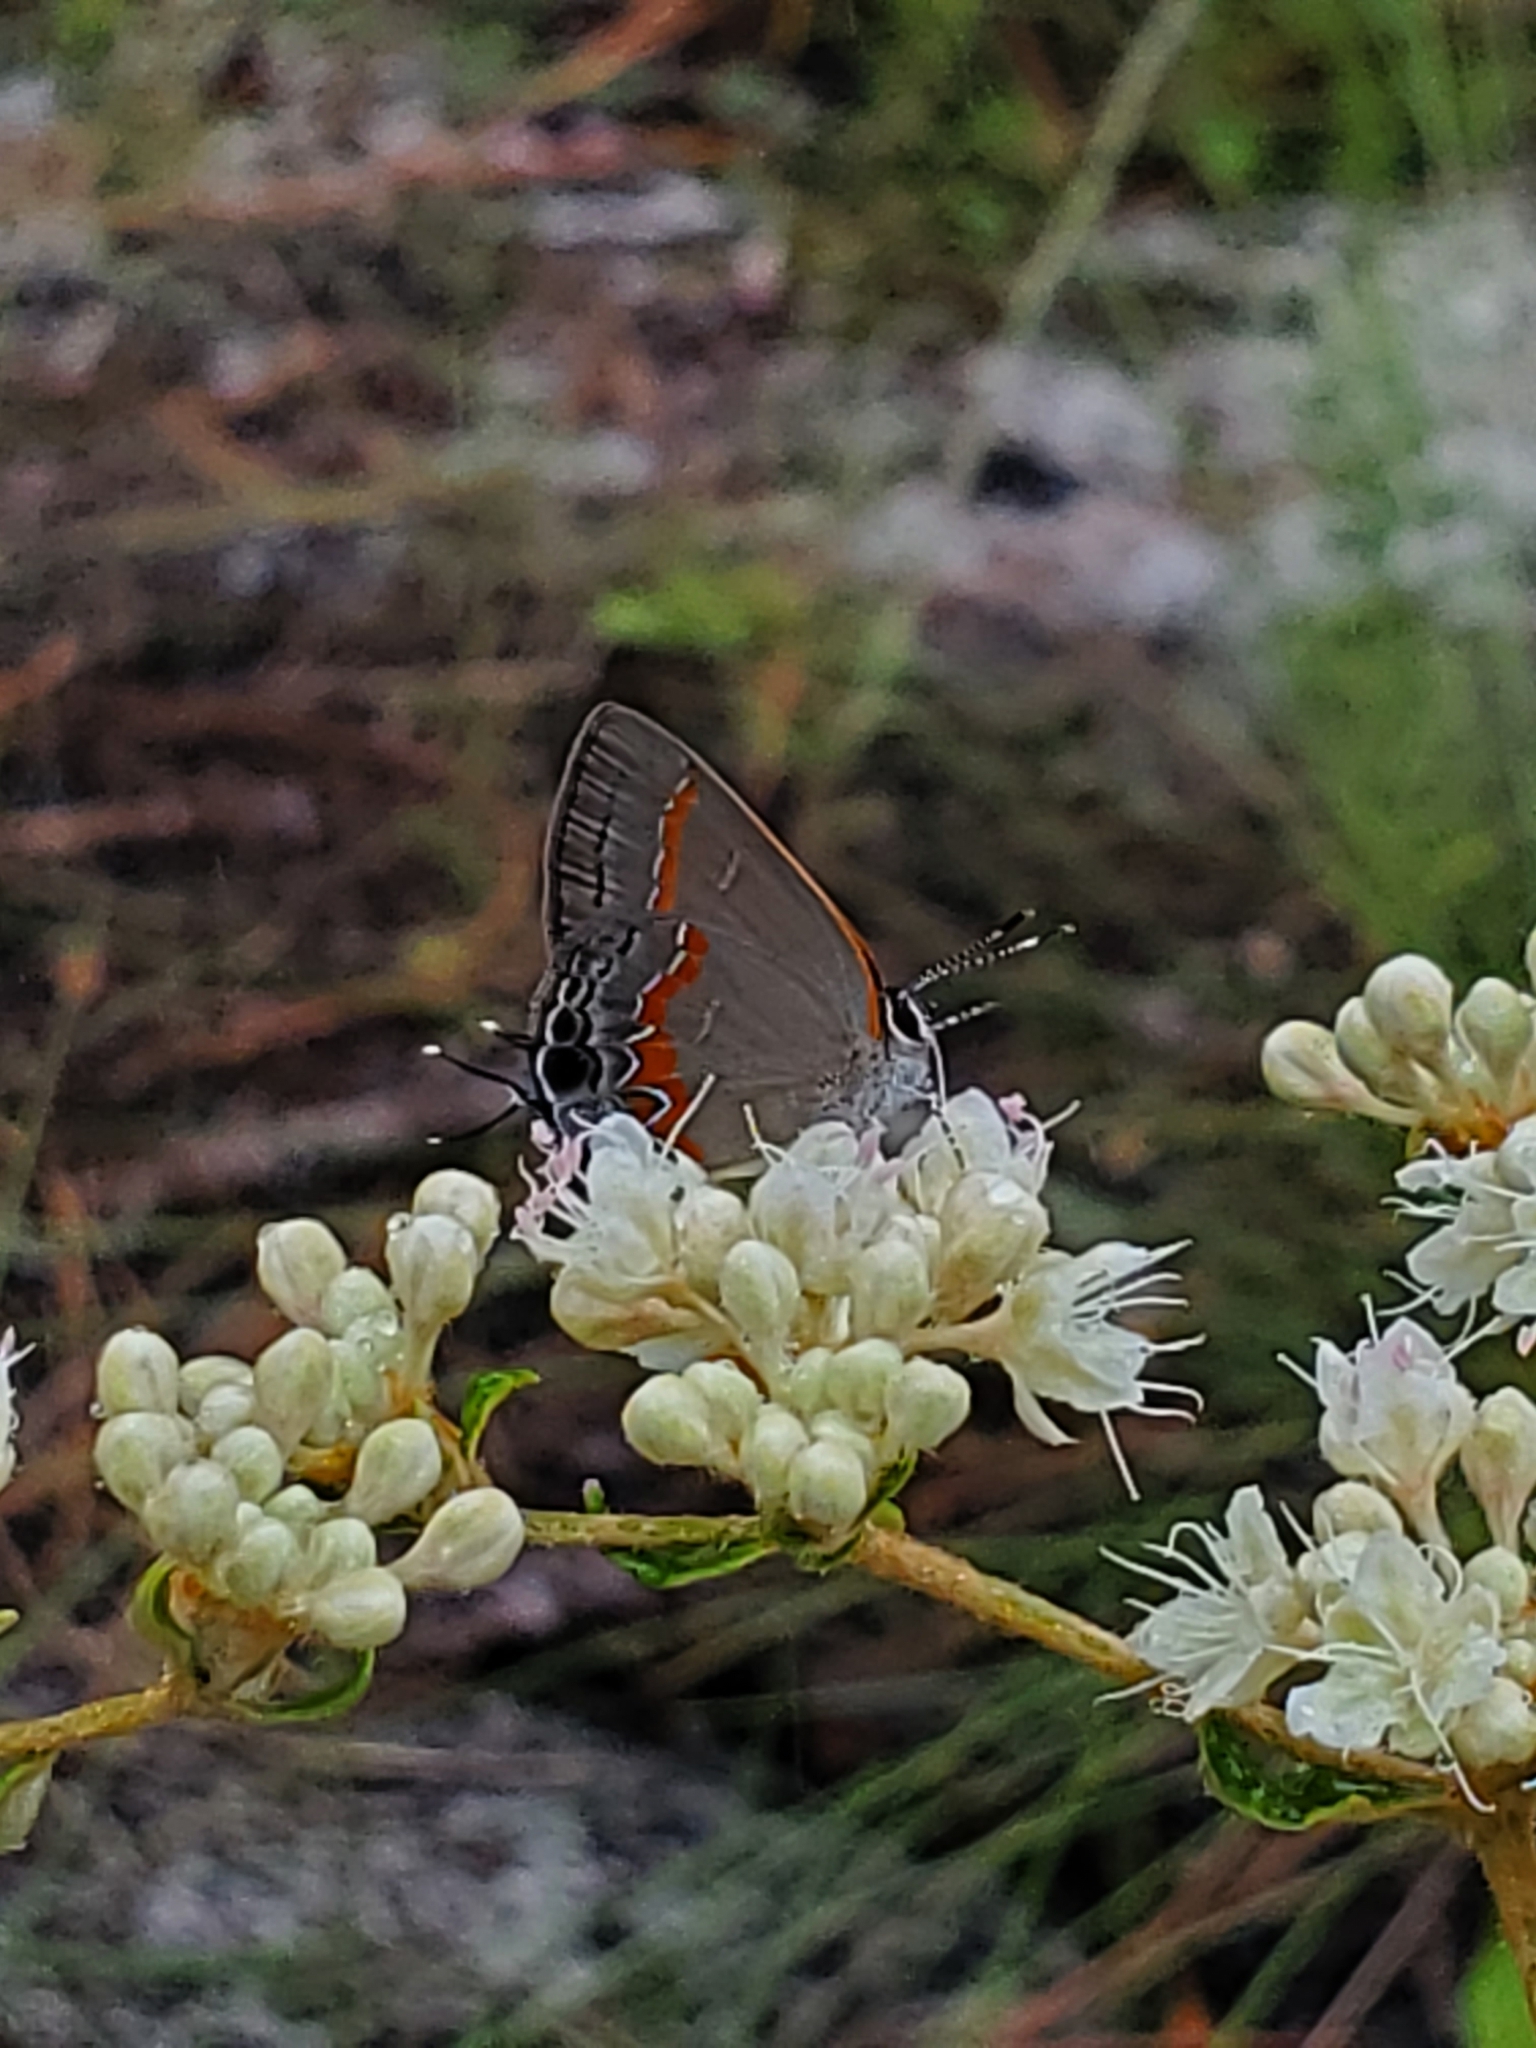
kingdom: Animalia
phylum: Arthropoda
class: Insecta
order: Lepidoptera
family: Lycaenidae
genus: Calycopis
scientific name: Calycopis cecrops
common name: Red-banded hairstreak
